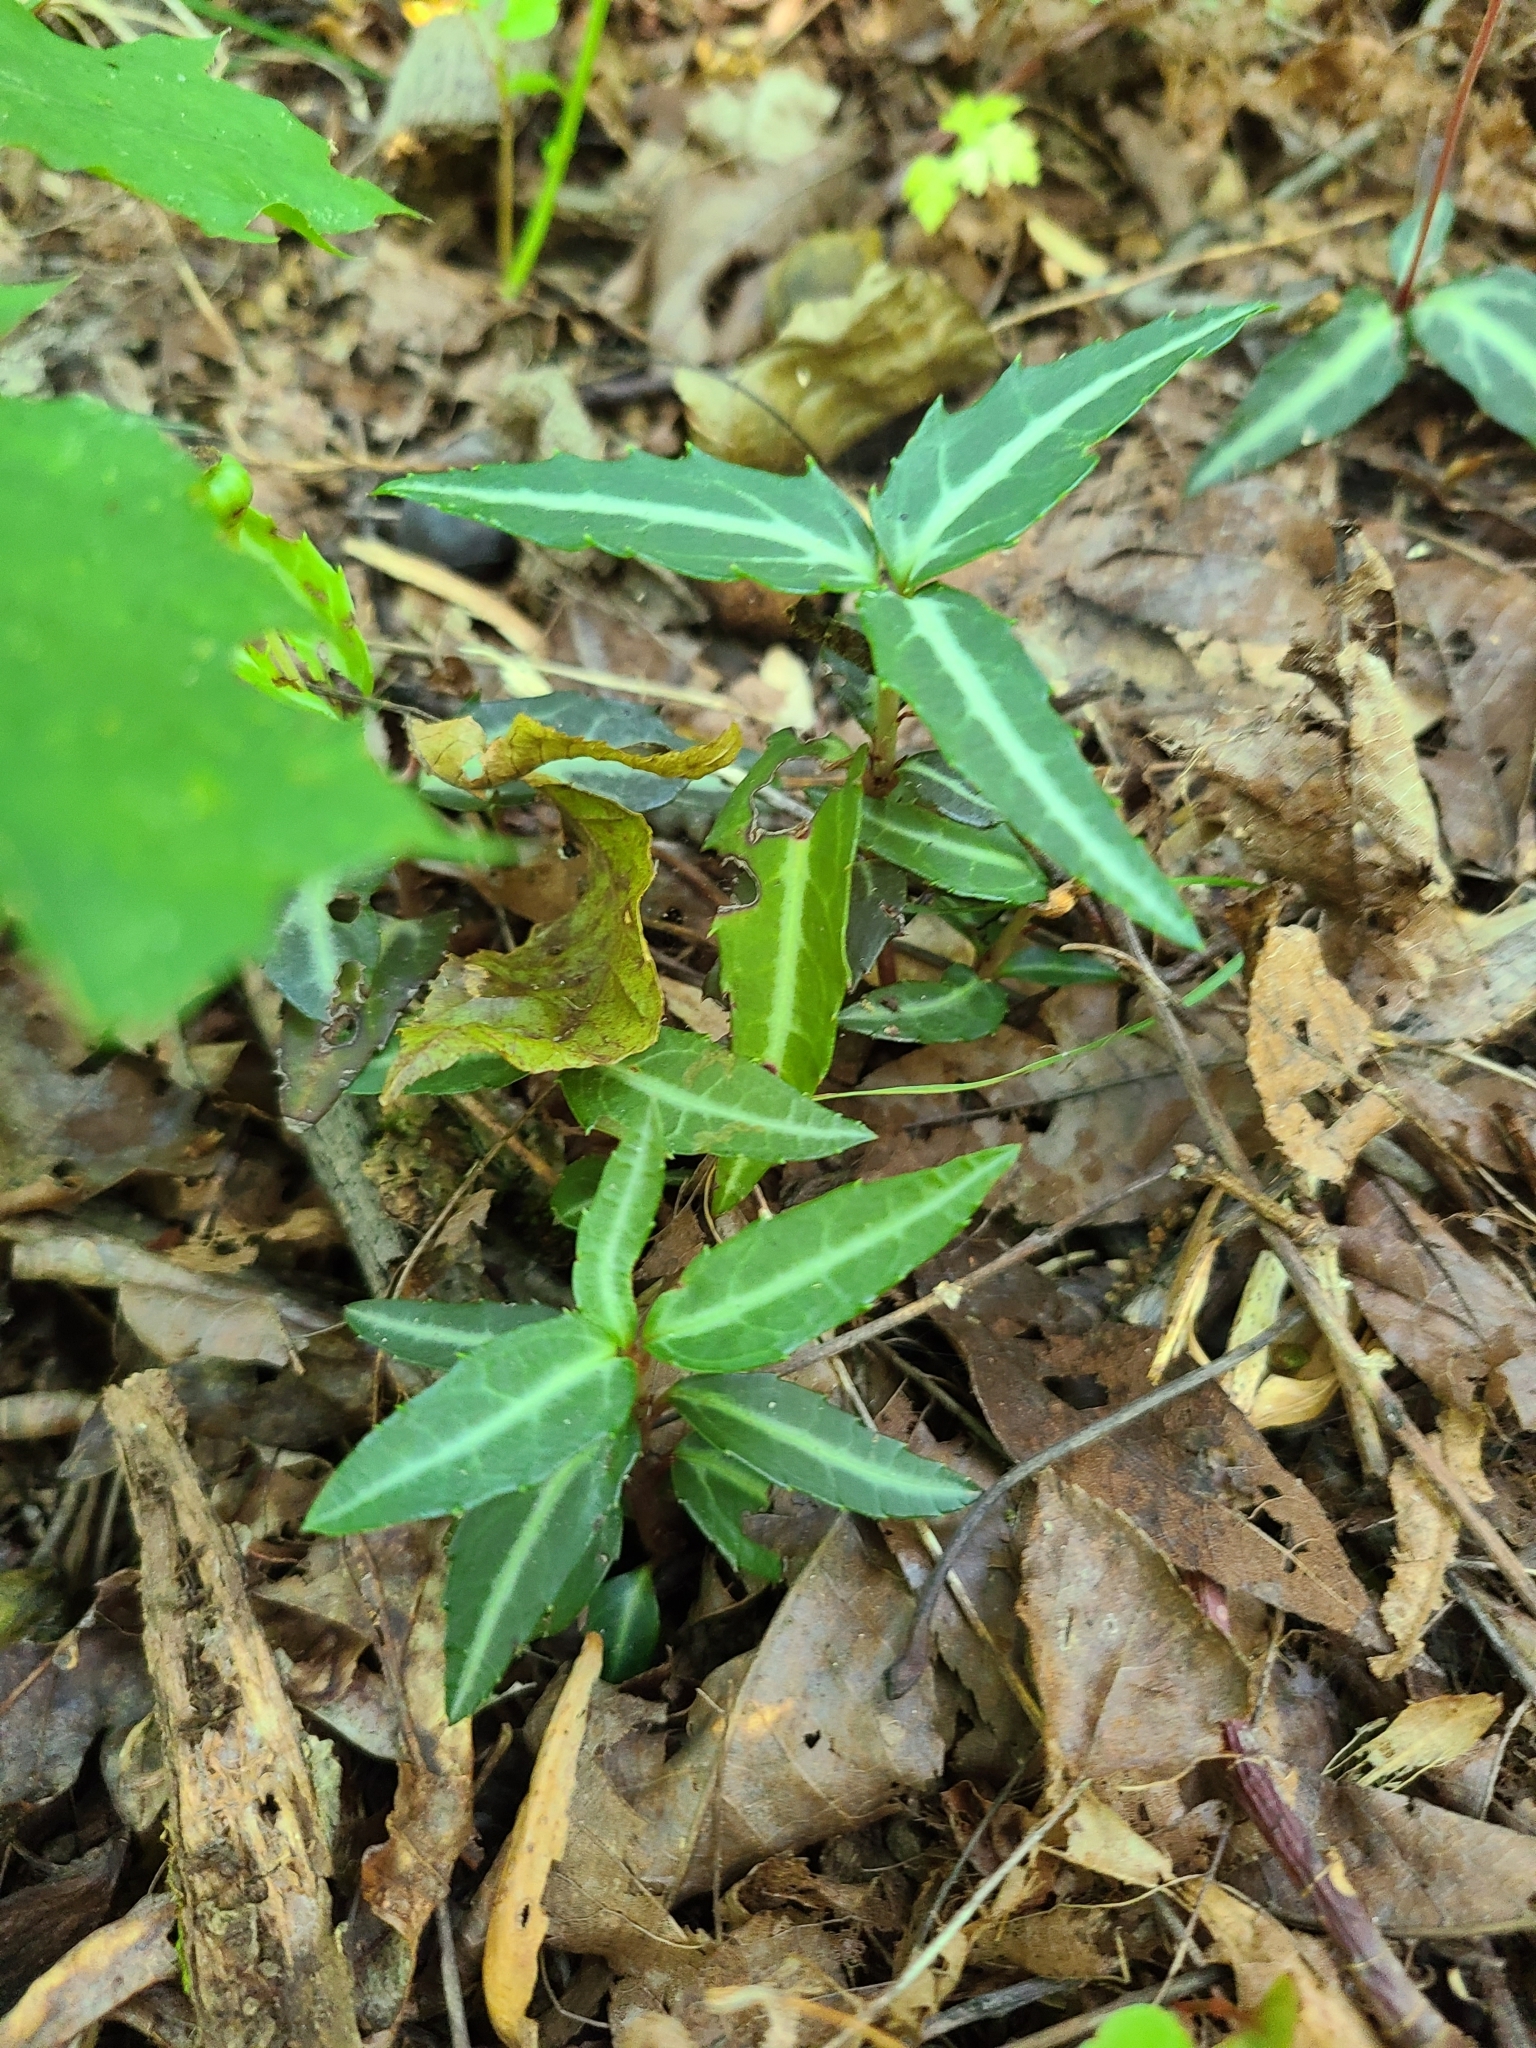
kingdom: Plantae
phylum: Tracheophyta
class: Magnoliopsida
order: Ericales
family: Ericaceae
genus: Chimaphila
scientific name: Chimaphila maculata
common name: Spotted pipsissewa
